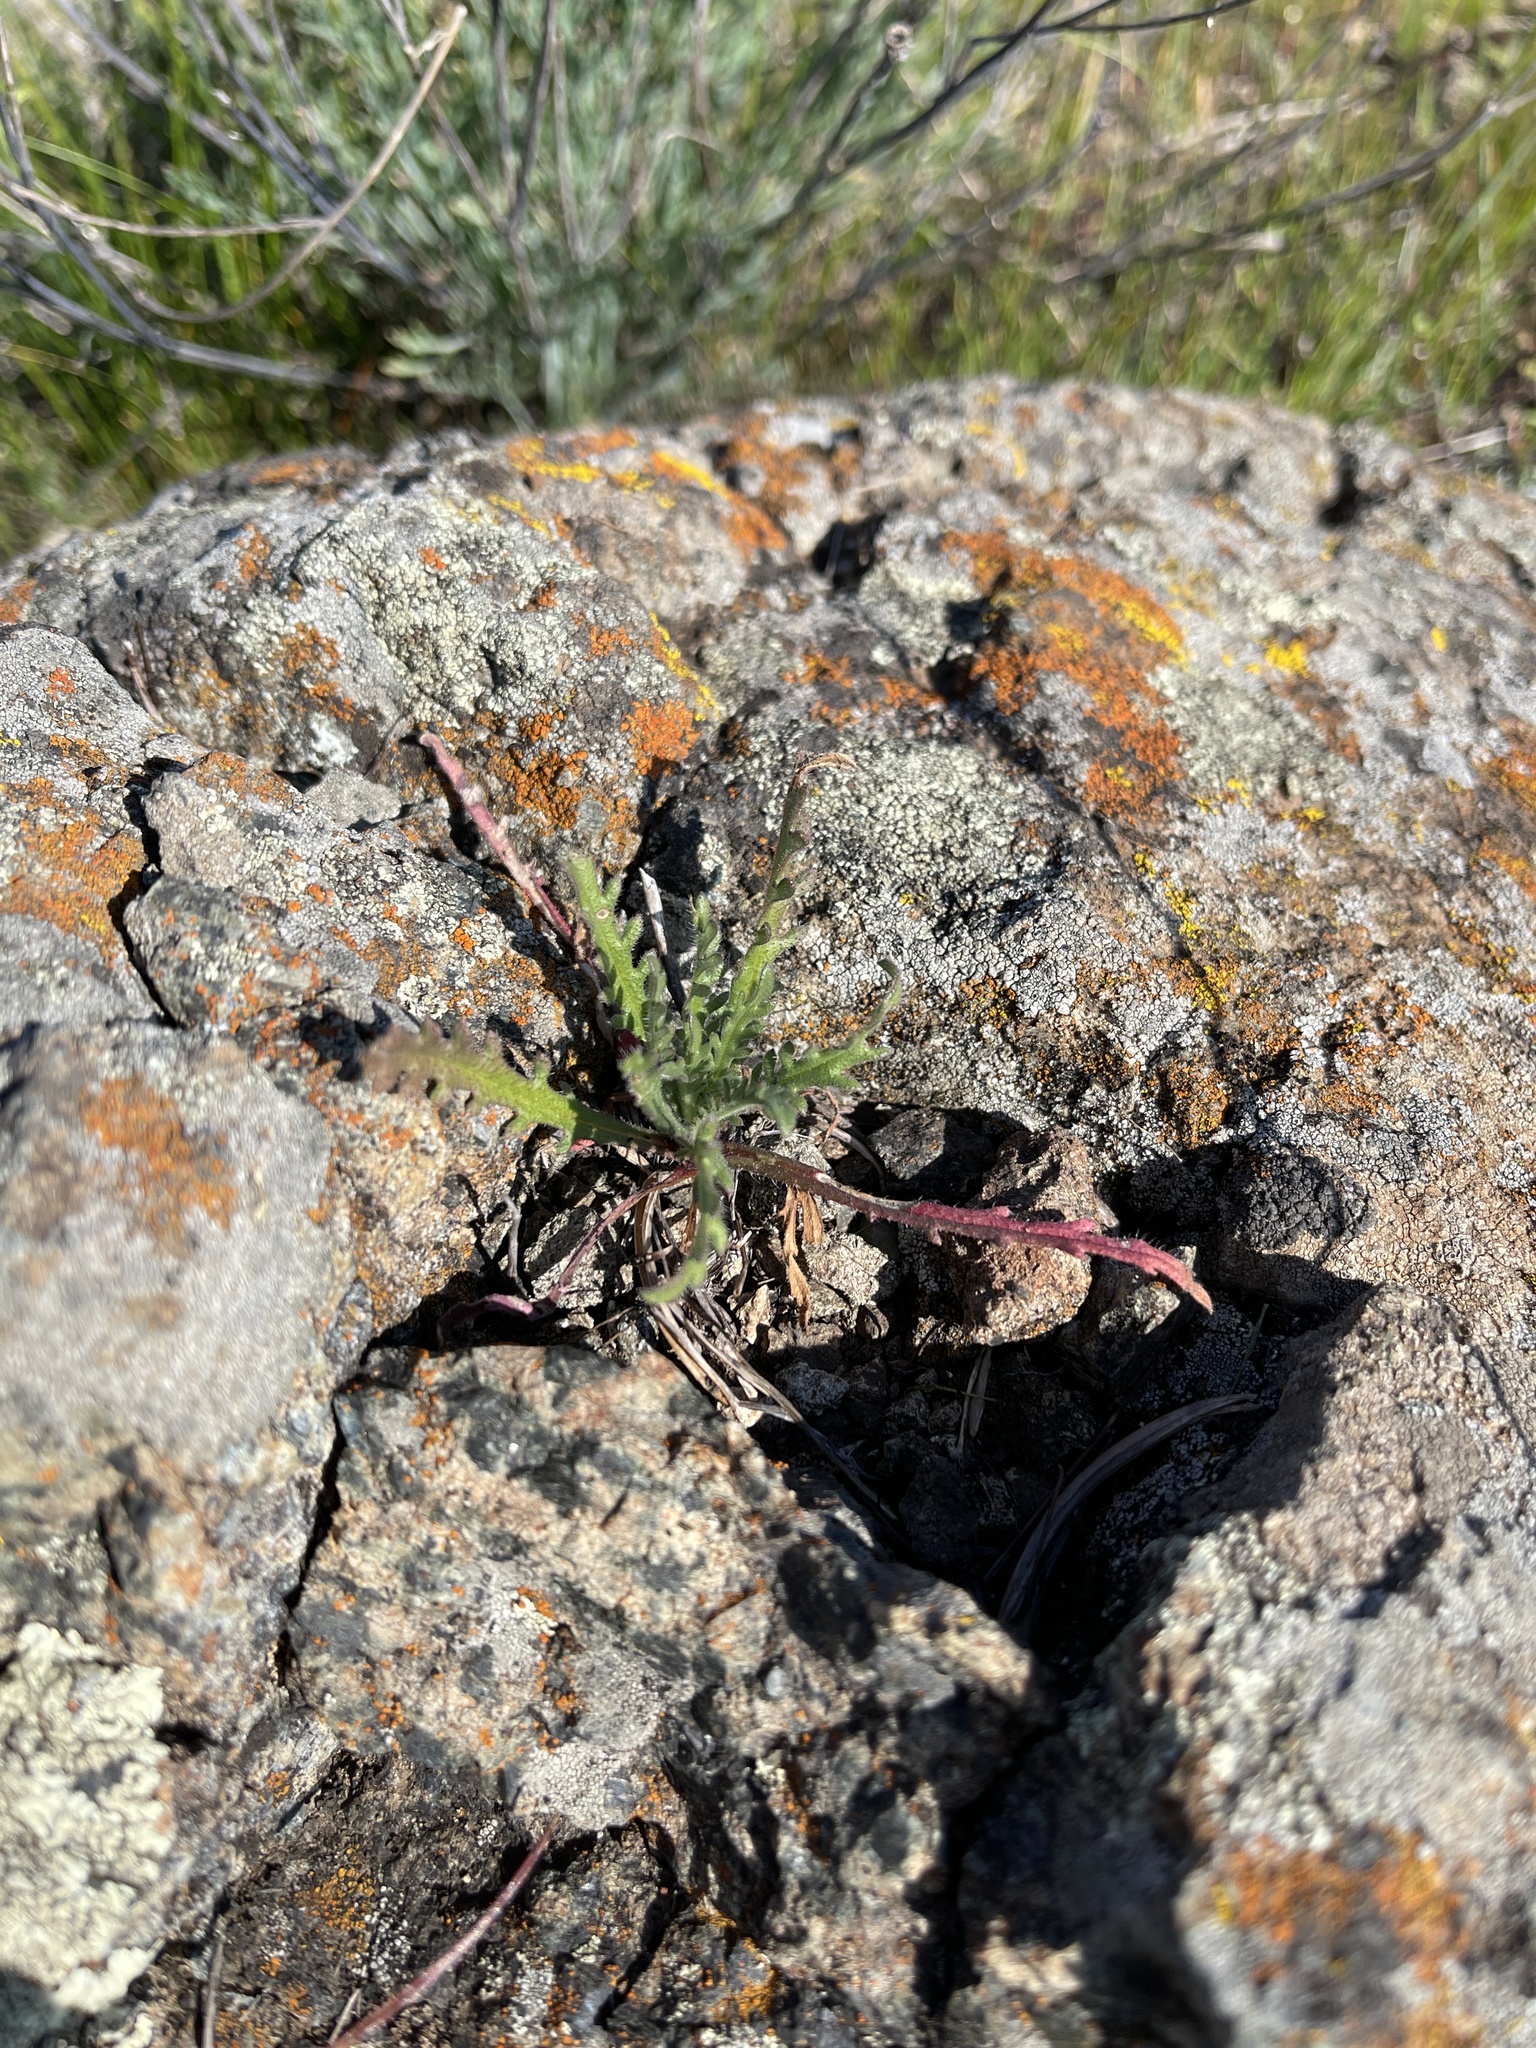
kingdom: Plantae
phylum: Tracheophyta
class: Magnoliopsida
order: Asterales
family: Asteraceae
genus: Layia
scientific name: Layia platyglossa
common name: Tidy-tips
